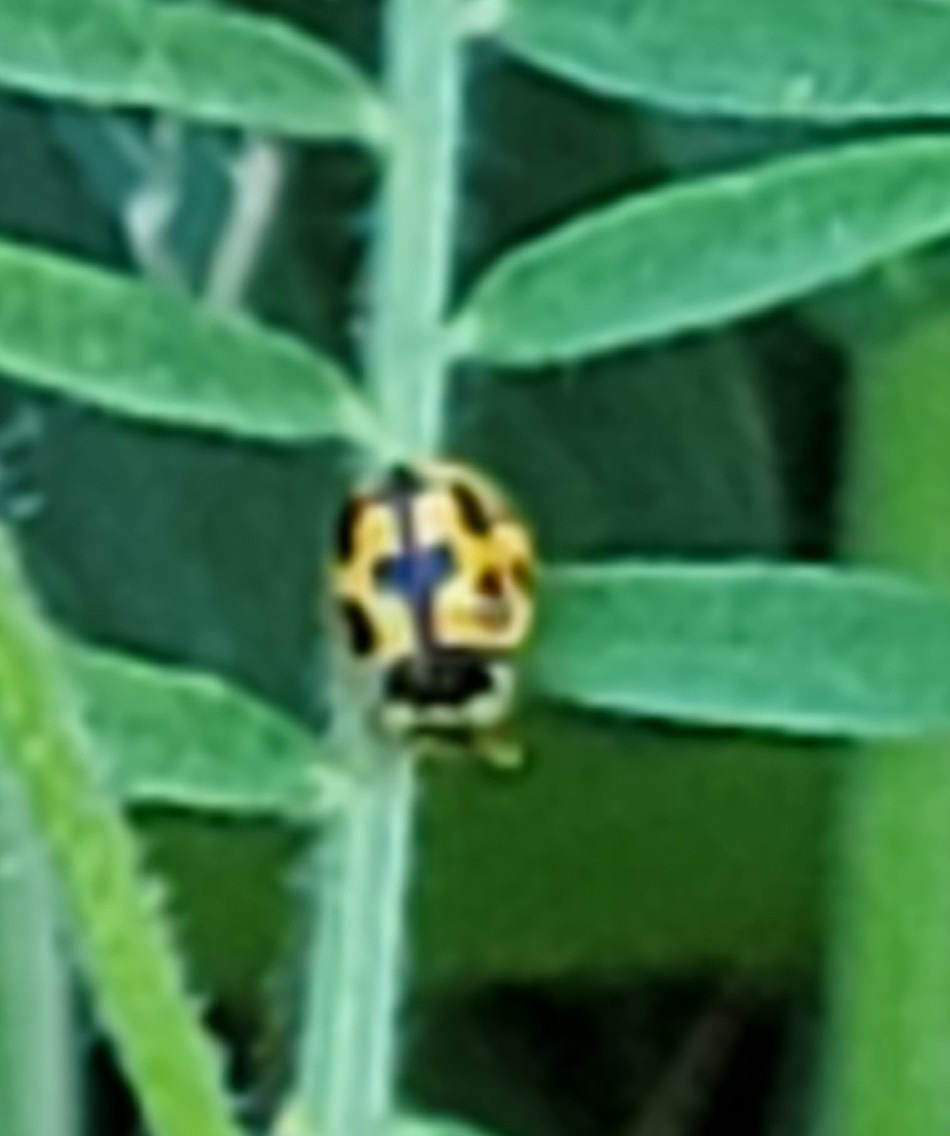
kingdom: Animalia
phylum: Arthropoda
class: Insecta
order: Coleoptera
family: Coccinellidae
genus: Propylaea
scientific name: Propylaea quatuordecimpunctata
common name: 14-spotted ladybird beetle
